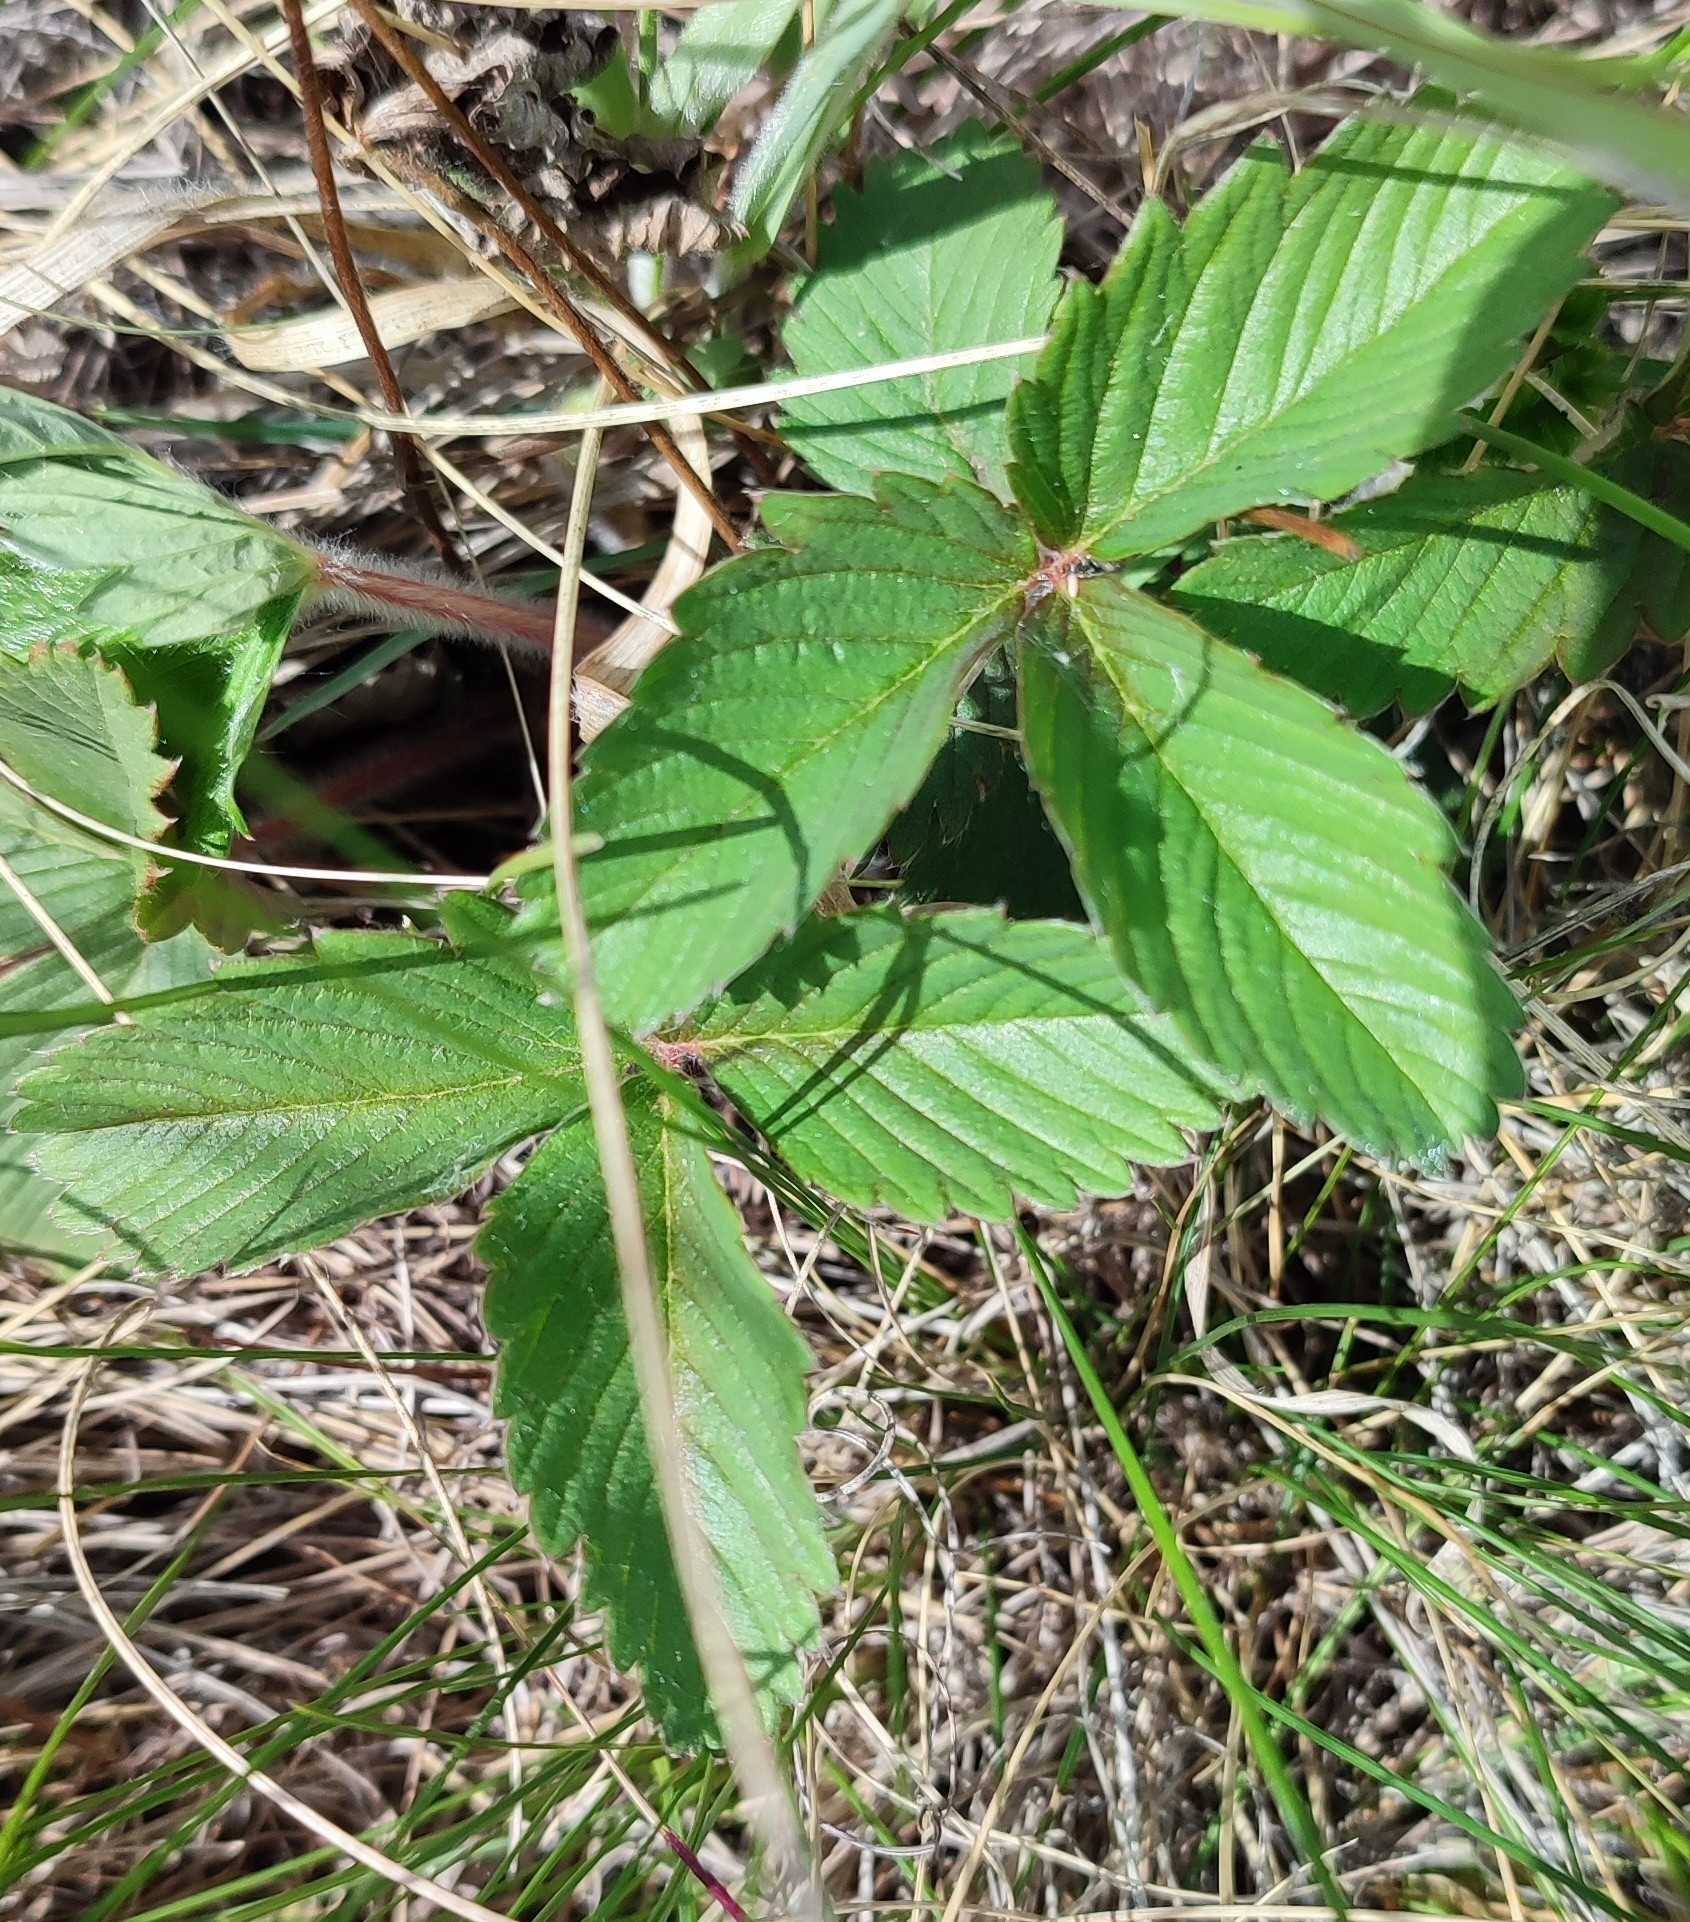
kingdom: Plantae
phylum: Tracheophyta
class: Magnoliopsida
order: Rosales
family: Rosaceae
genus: Fragaria
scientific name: Fragaria viridis
